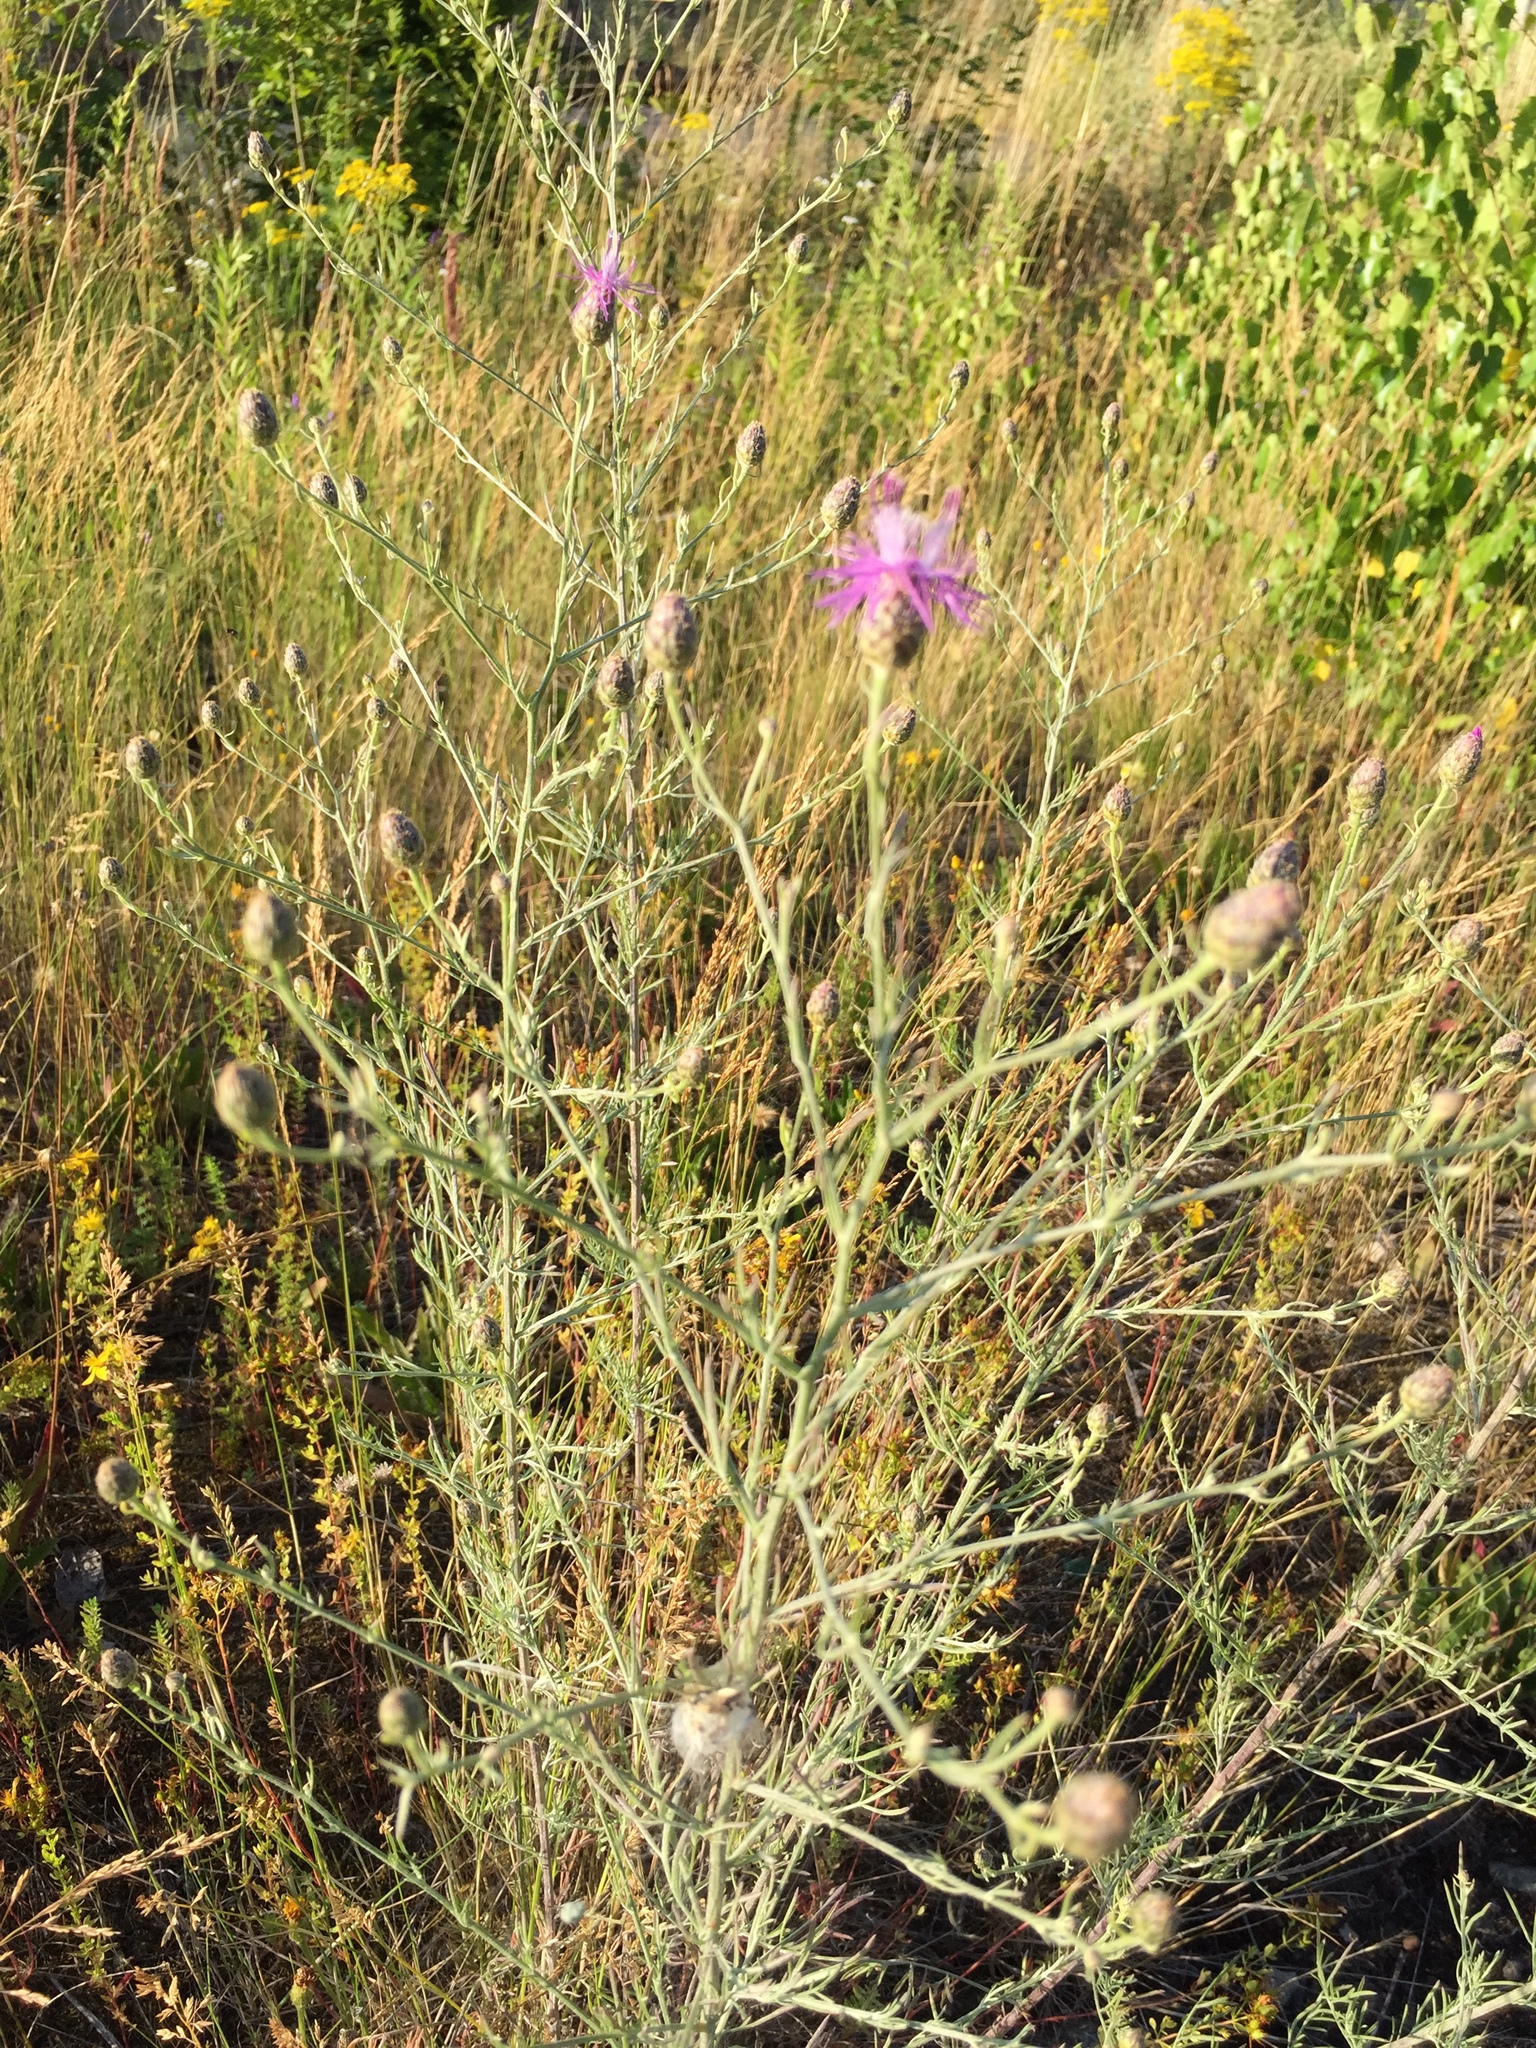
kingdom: Plantae
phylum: Tracheophyta
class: Magnoliopsida
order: Asterales
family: Asteraceae
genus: Centaurea
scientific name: Centaurea stoebe
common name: Spotted knapweed
